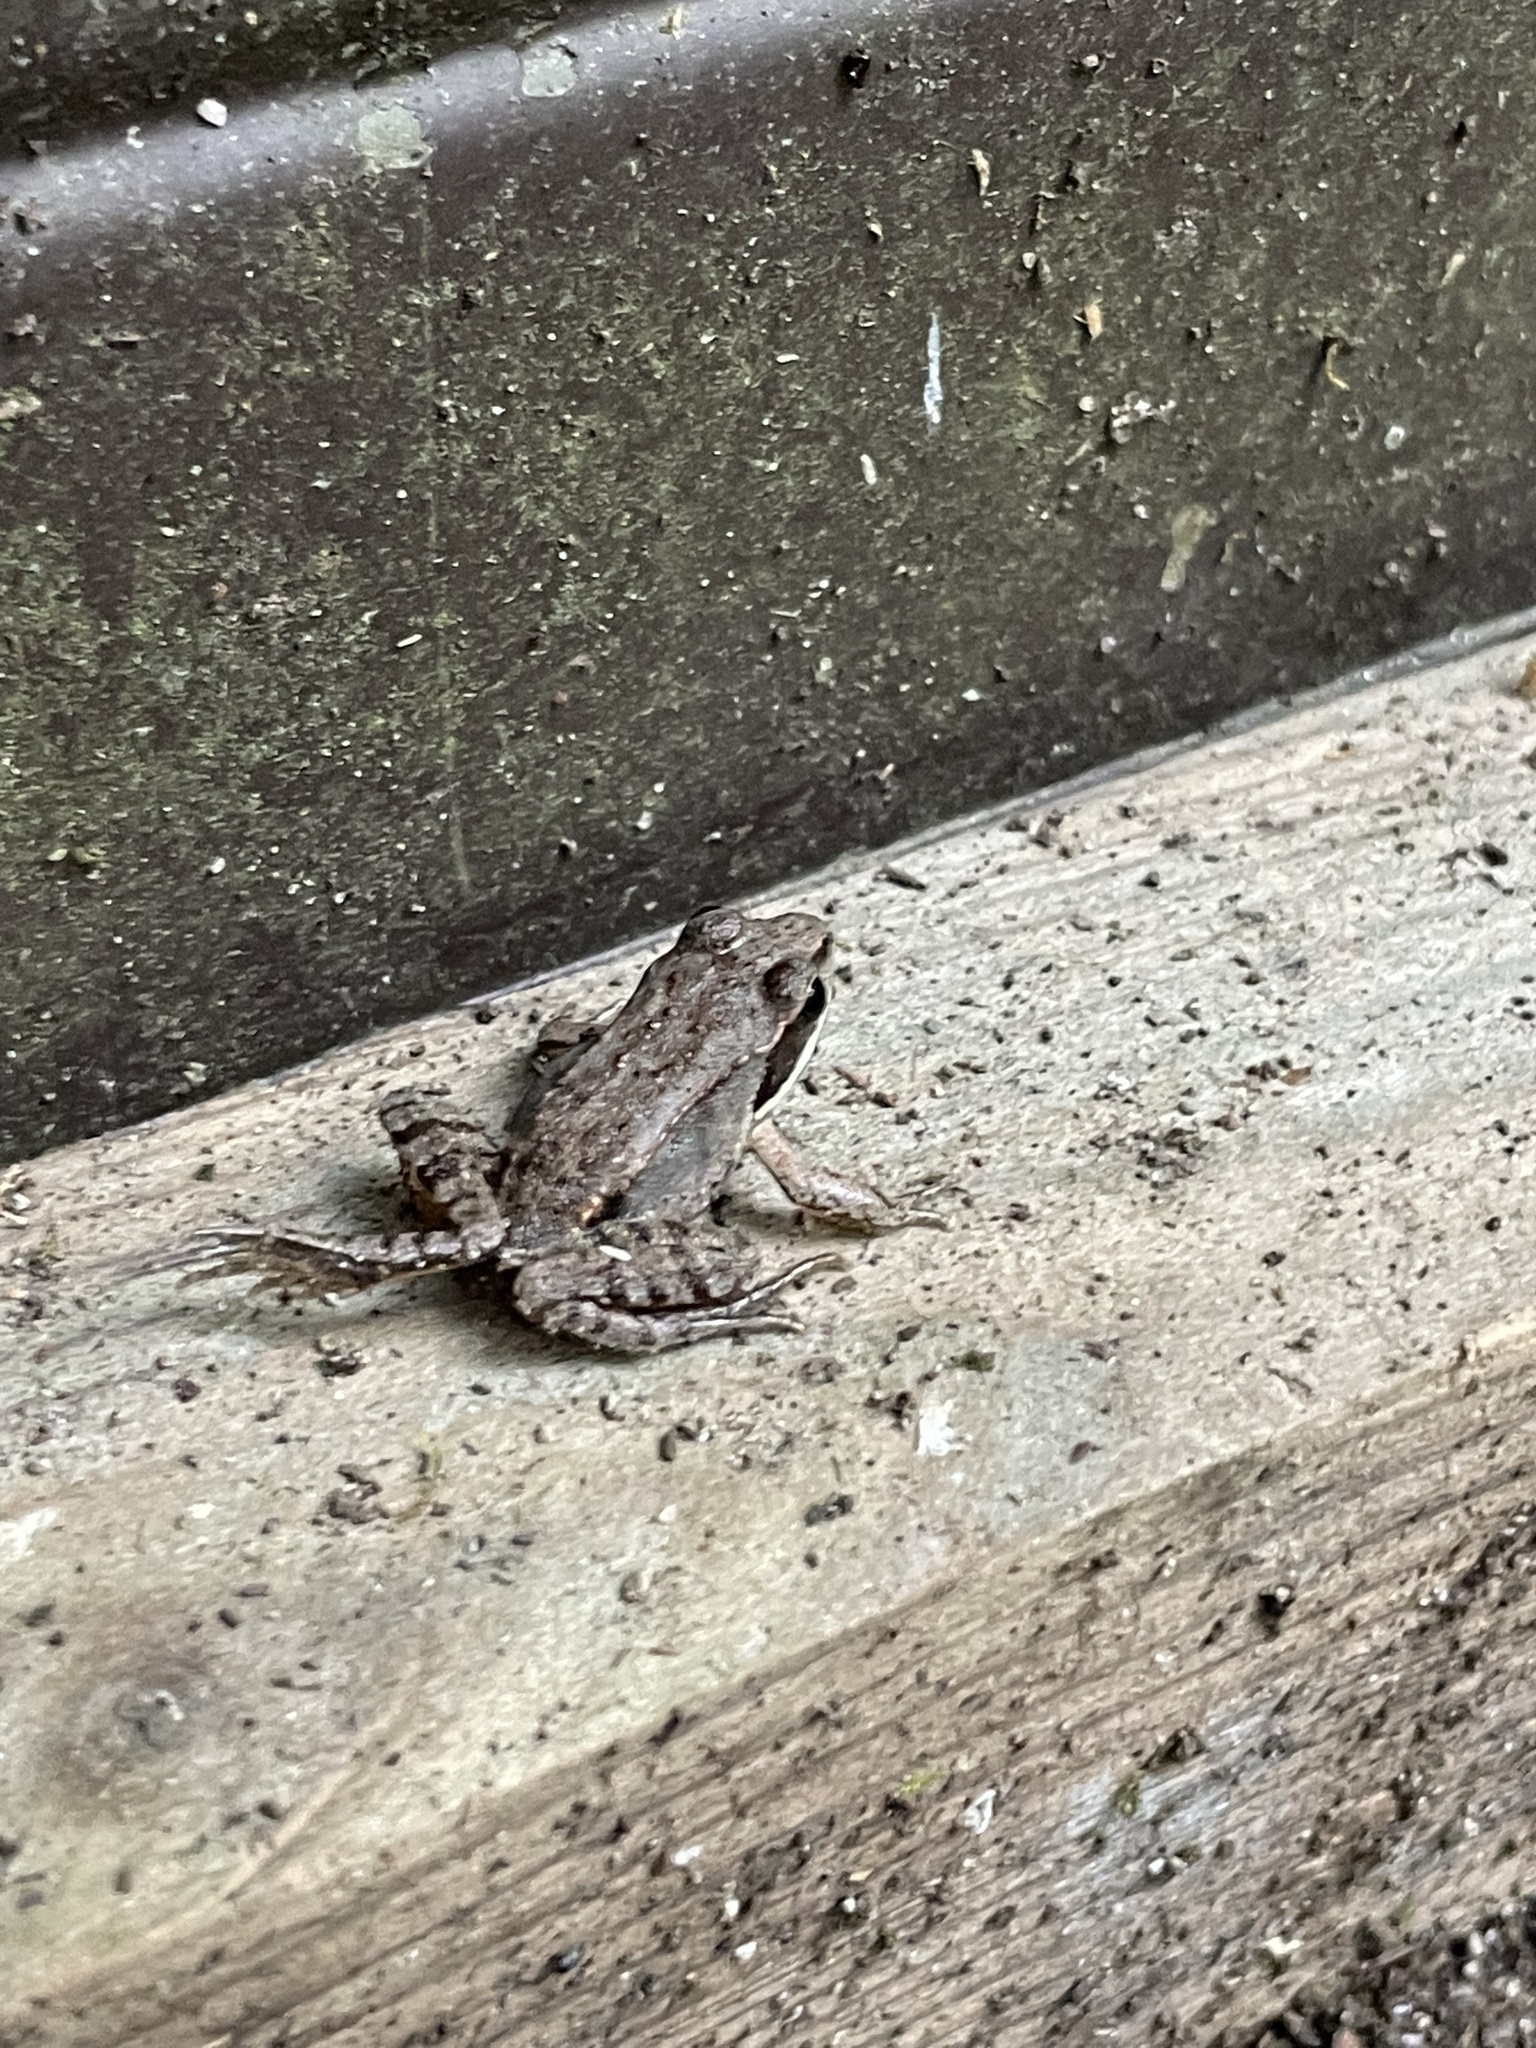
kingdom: Animalia
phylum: Chordata
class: Amphibia
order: Anura
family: Ranidae
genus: Lithobates
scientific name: Lithobates sylvaticus
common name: Wood frog
